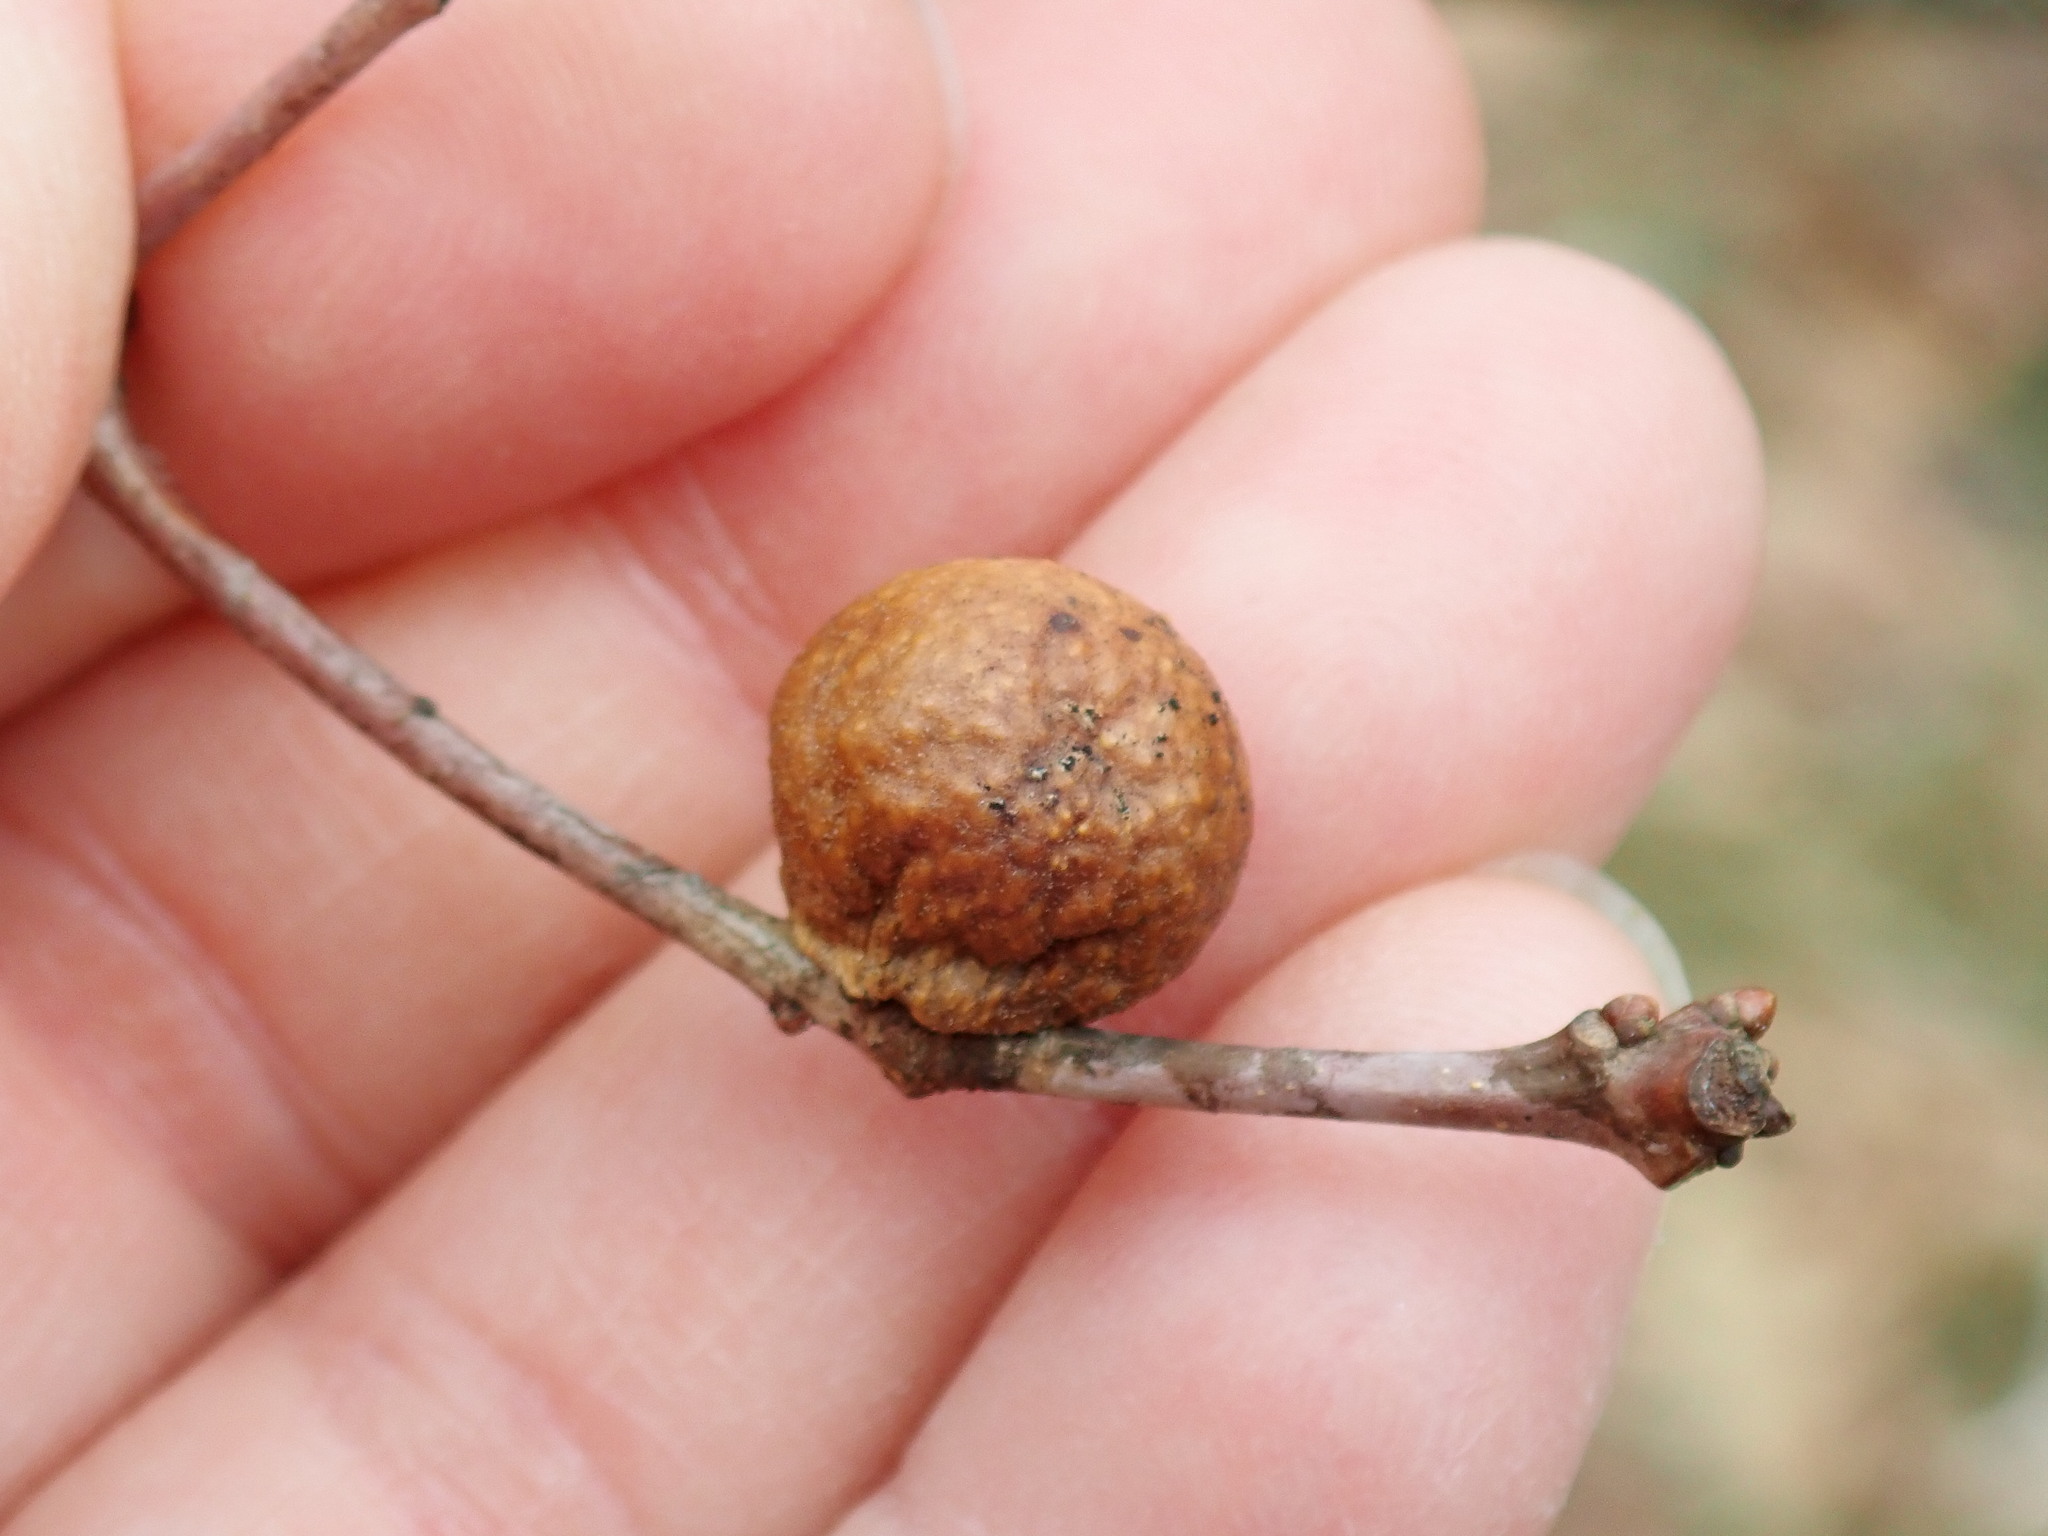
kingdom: Animalia
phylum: Arthropoda
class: Insecta
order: Hymenoptera
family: Cynipidae
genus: Disholcaspis
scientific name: Disholcaspis quercusglobulus
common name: Round bullet gall wasp
